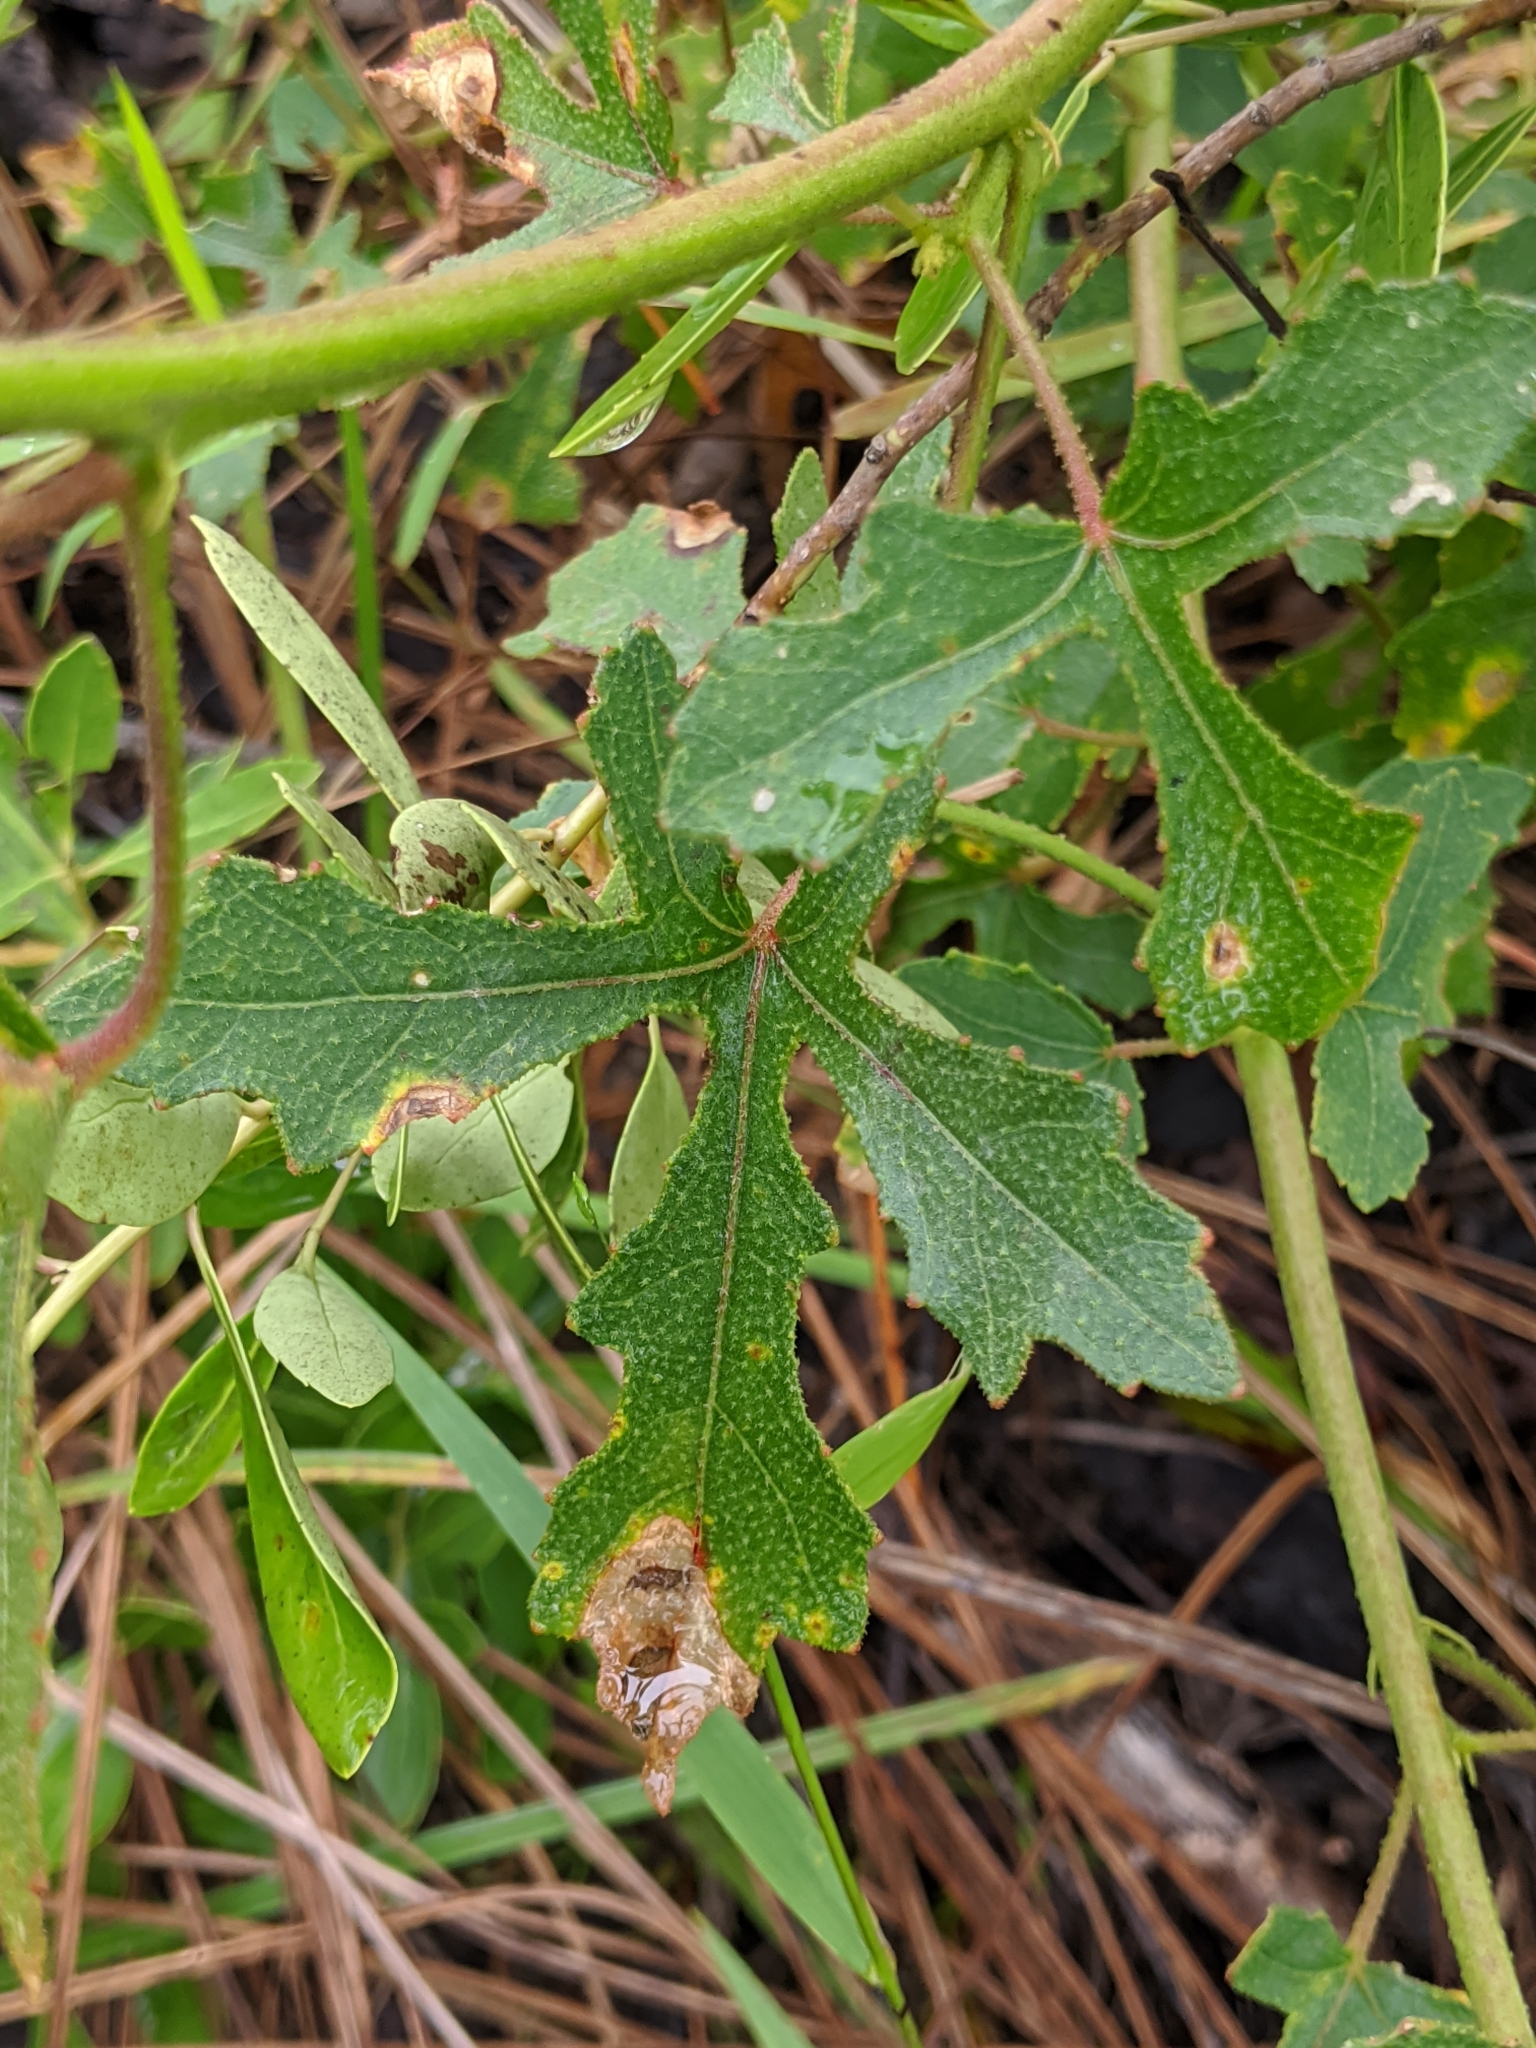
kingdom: Plantae
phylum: Tracheophyta
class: Magnoliopsida
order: Malvales
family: Malvaceae
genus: Hibiscus
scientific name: Hibiscus aculeatus
